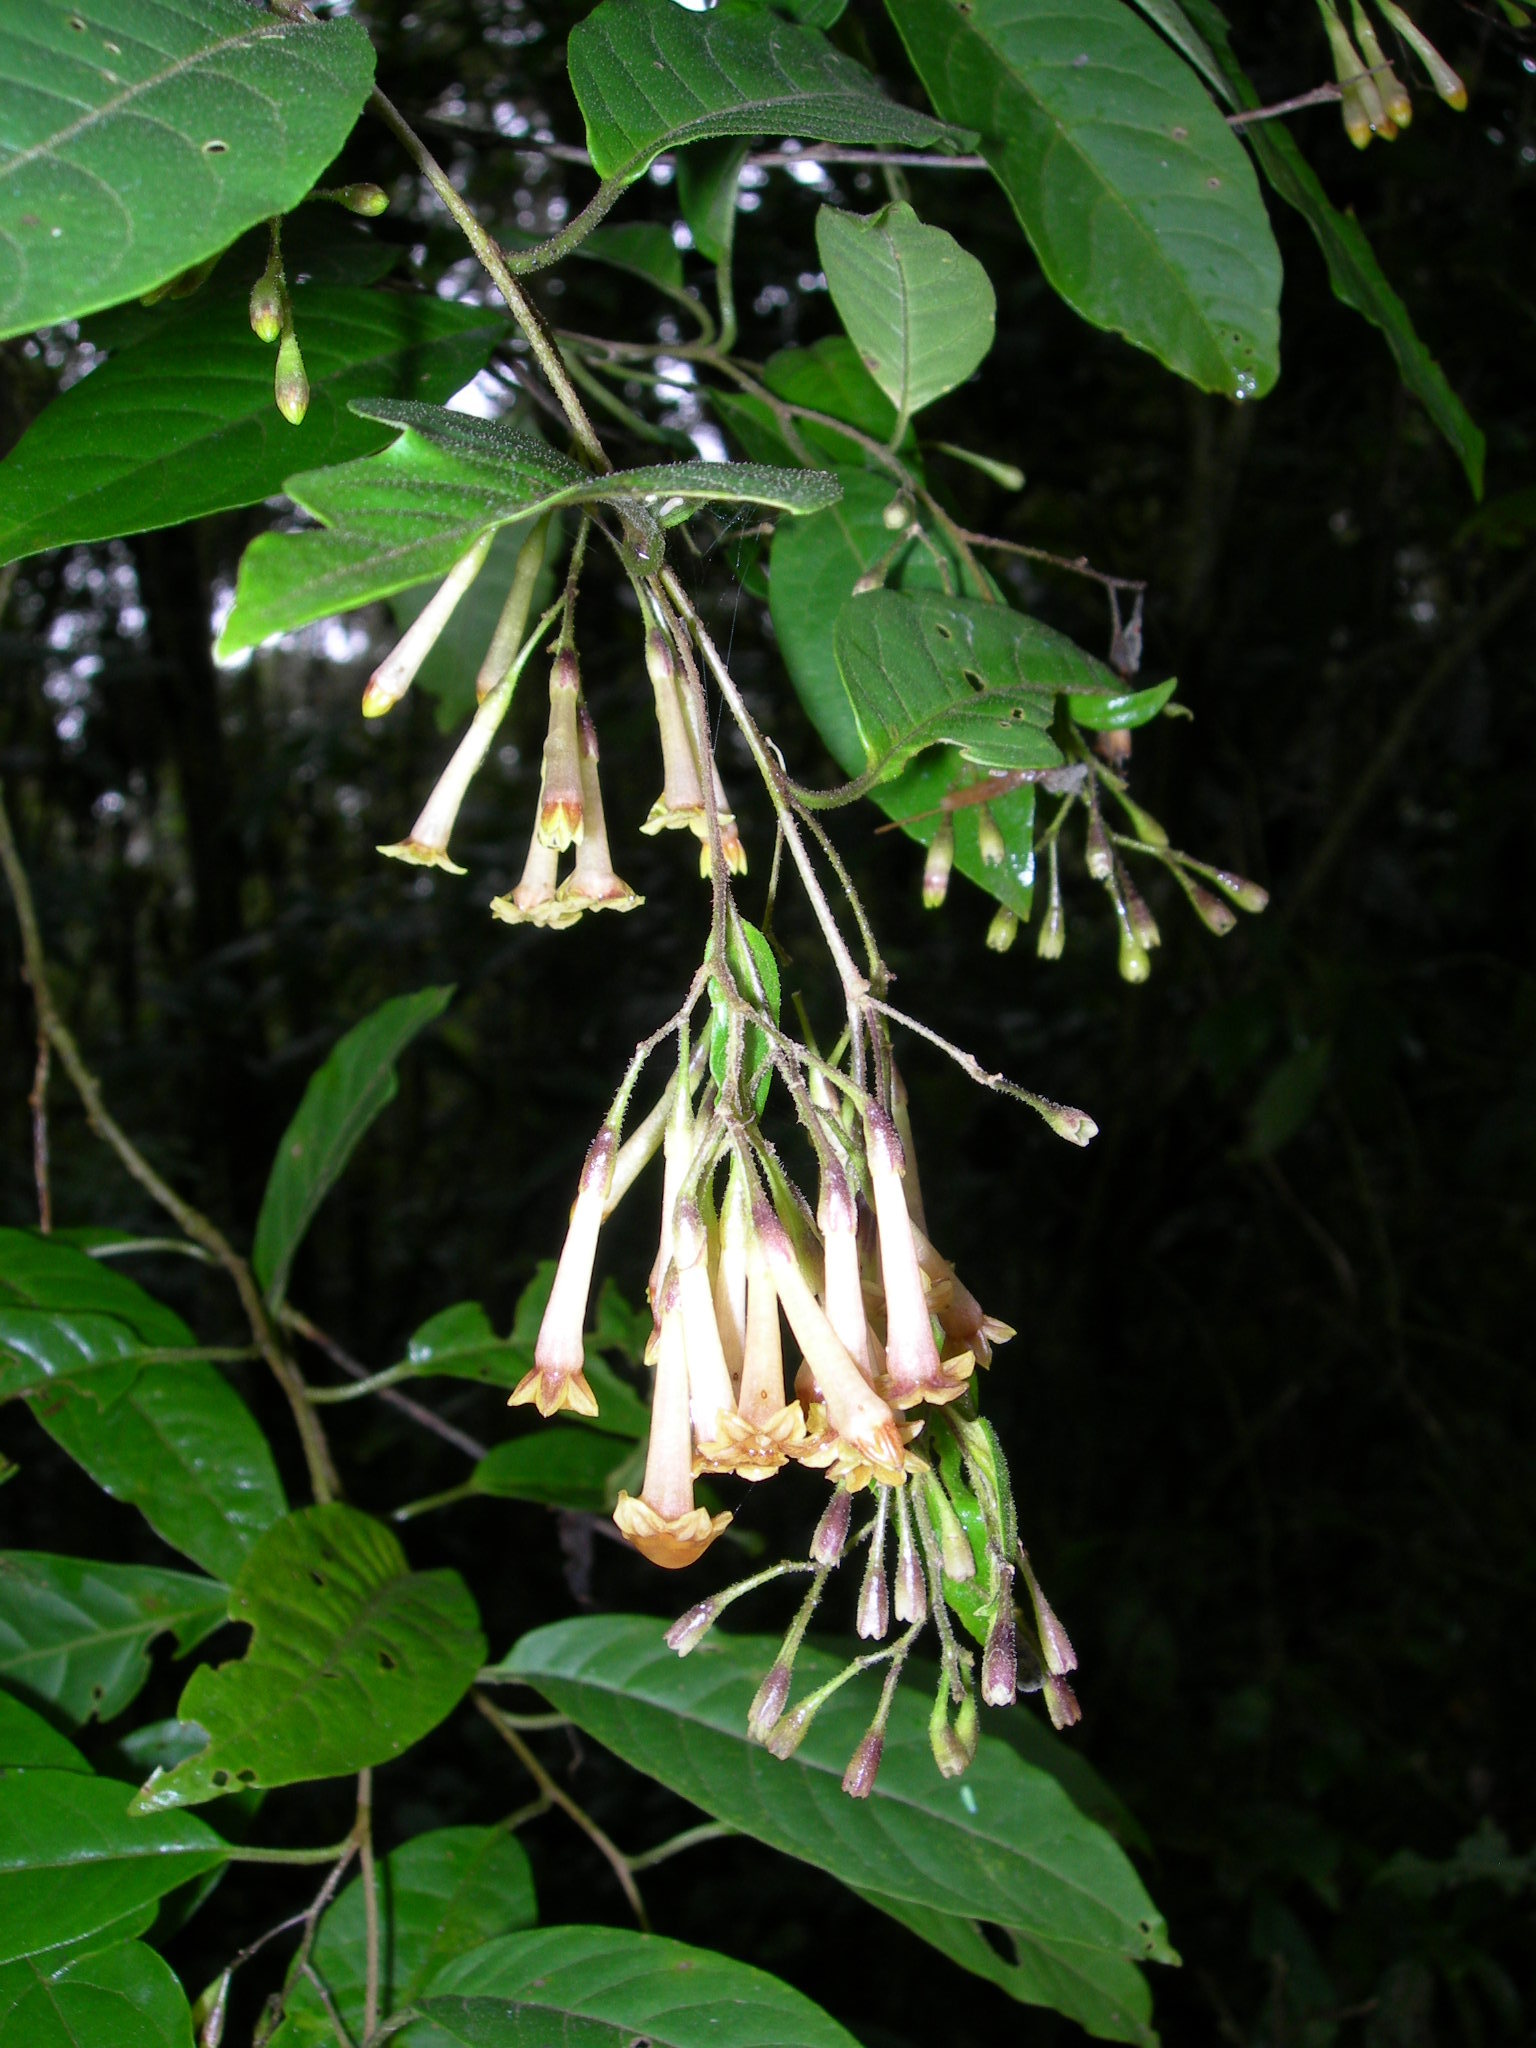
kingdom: Plantae
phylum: Tracheophyta
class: Magnoliopsida
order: Solanales
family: Solanaceae
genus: Cestrum
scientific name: Cestrum guatemalense
